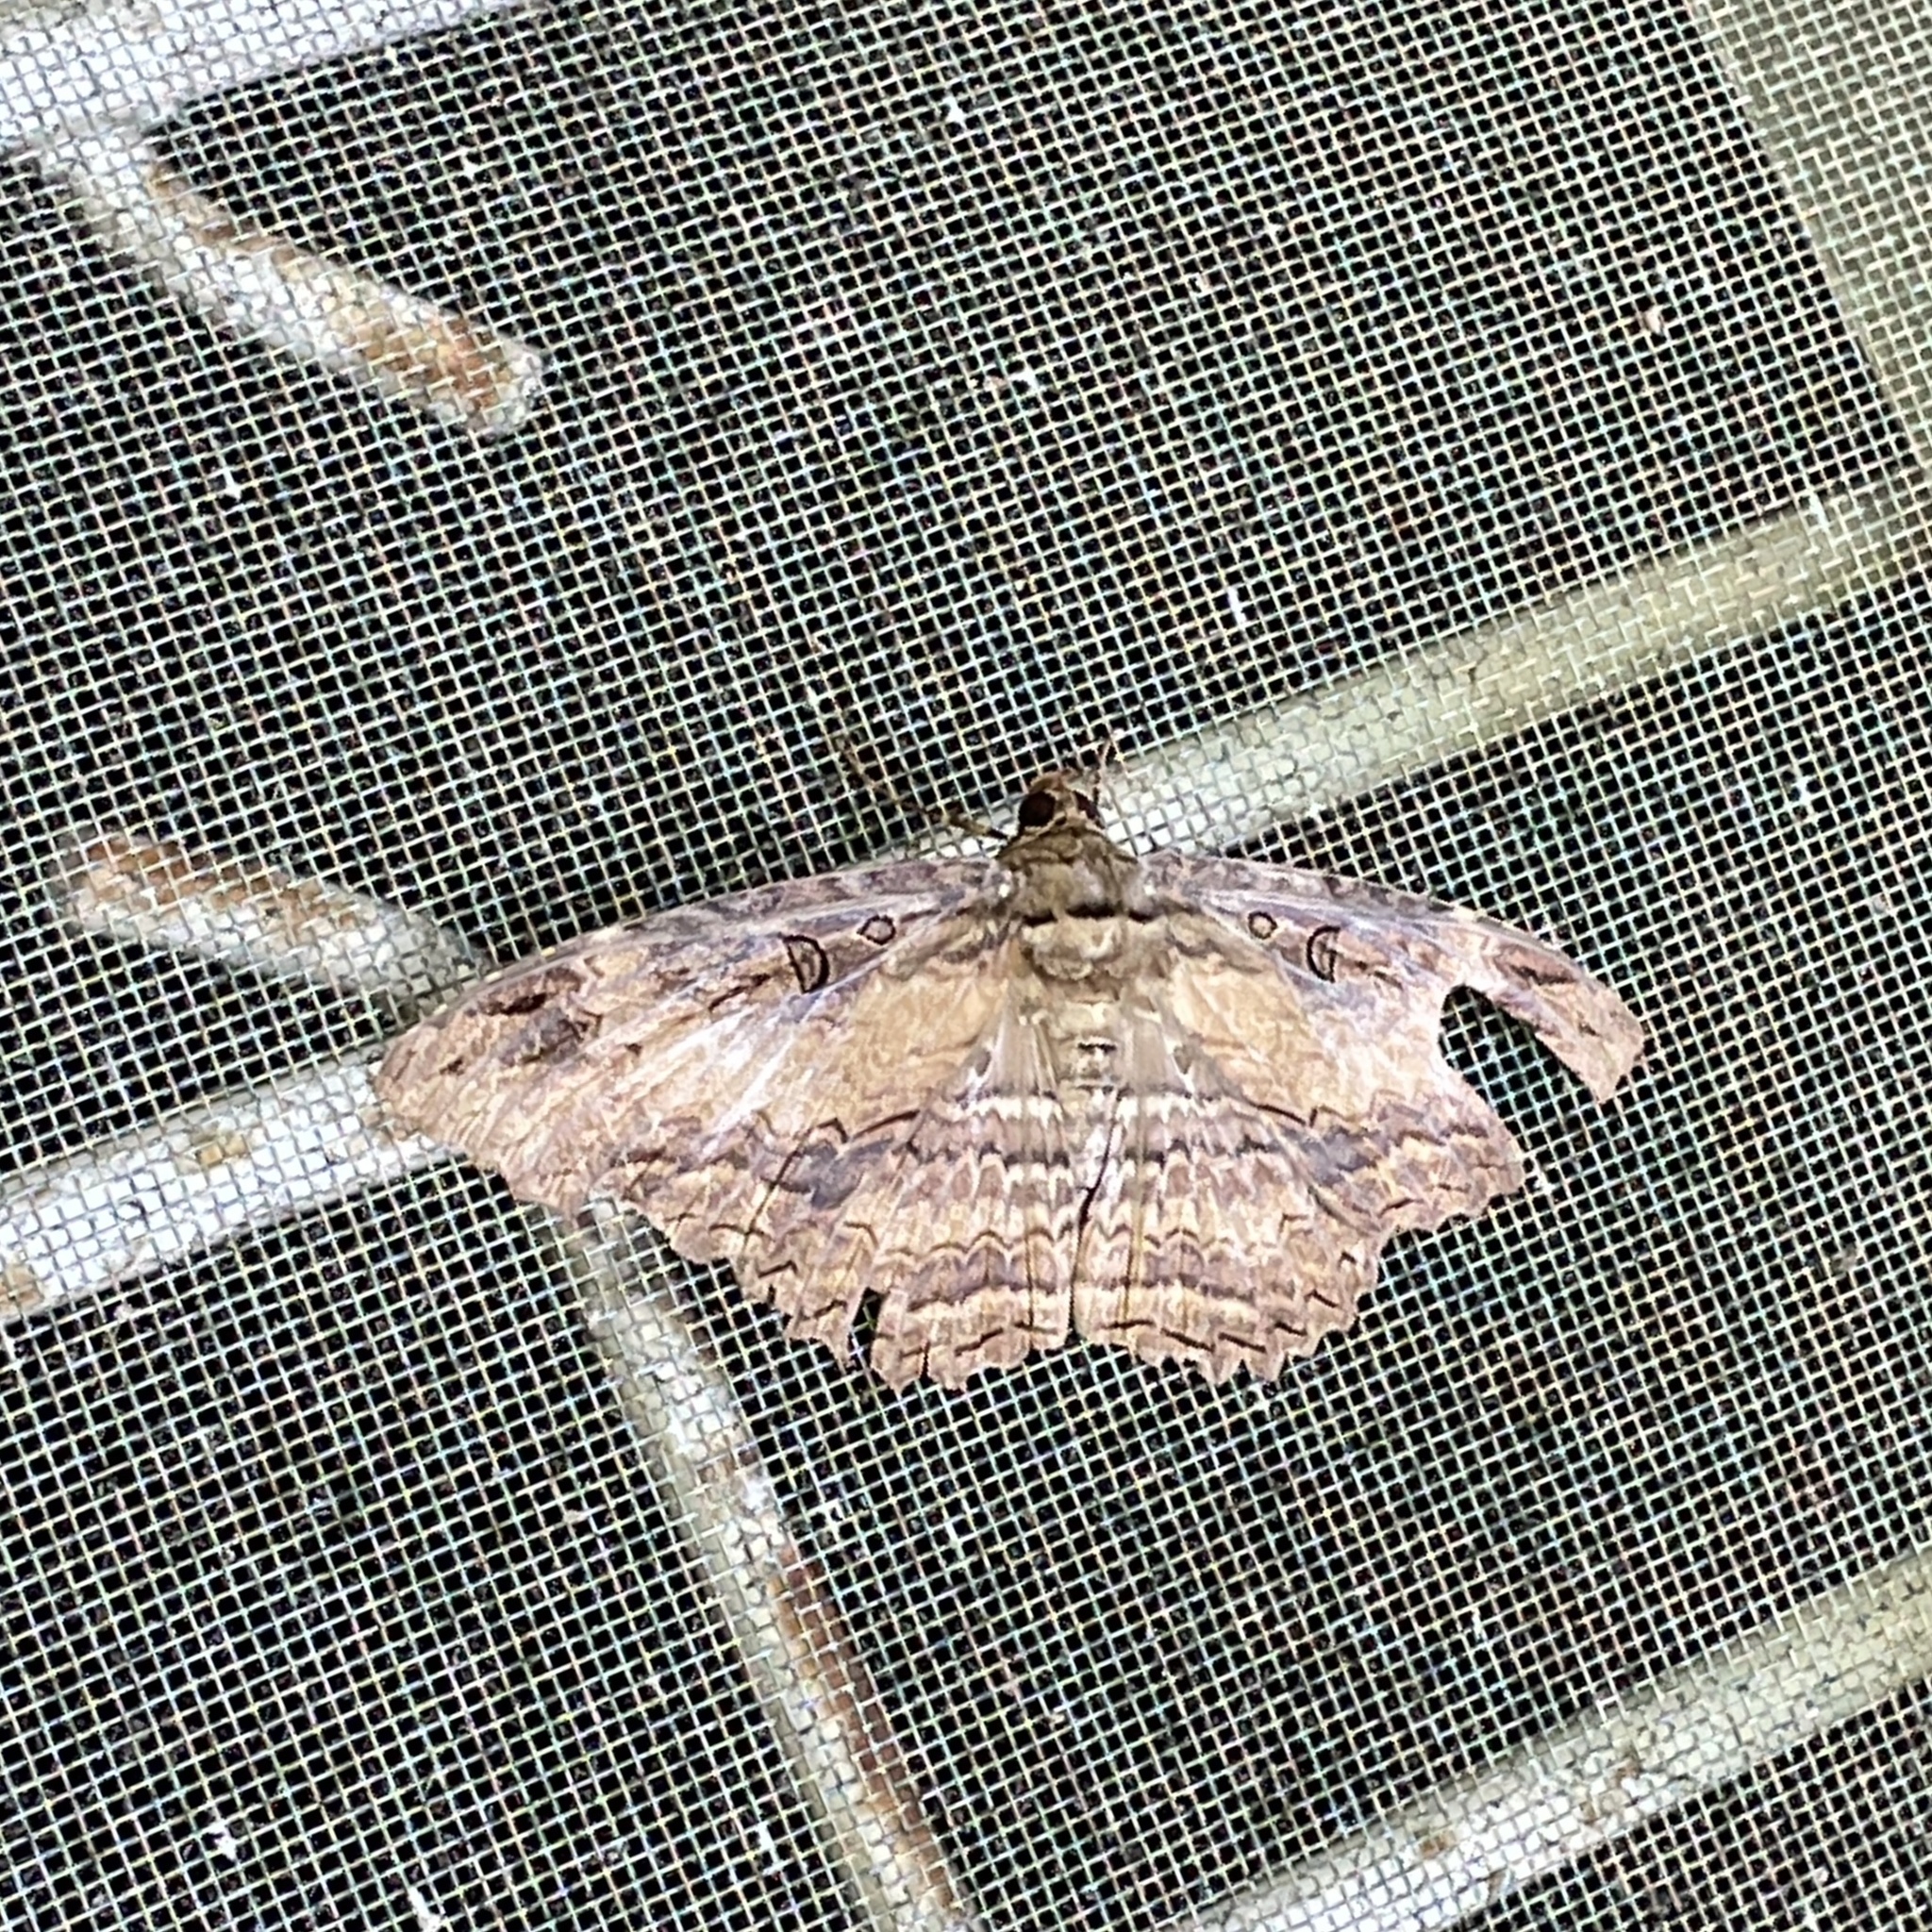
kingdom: Animalia
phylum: Arthropoda
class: Insecta
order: Lepidoptera
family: Erebidae
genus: Feigeria
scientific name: Feigeria buteo
